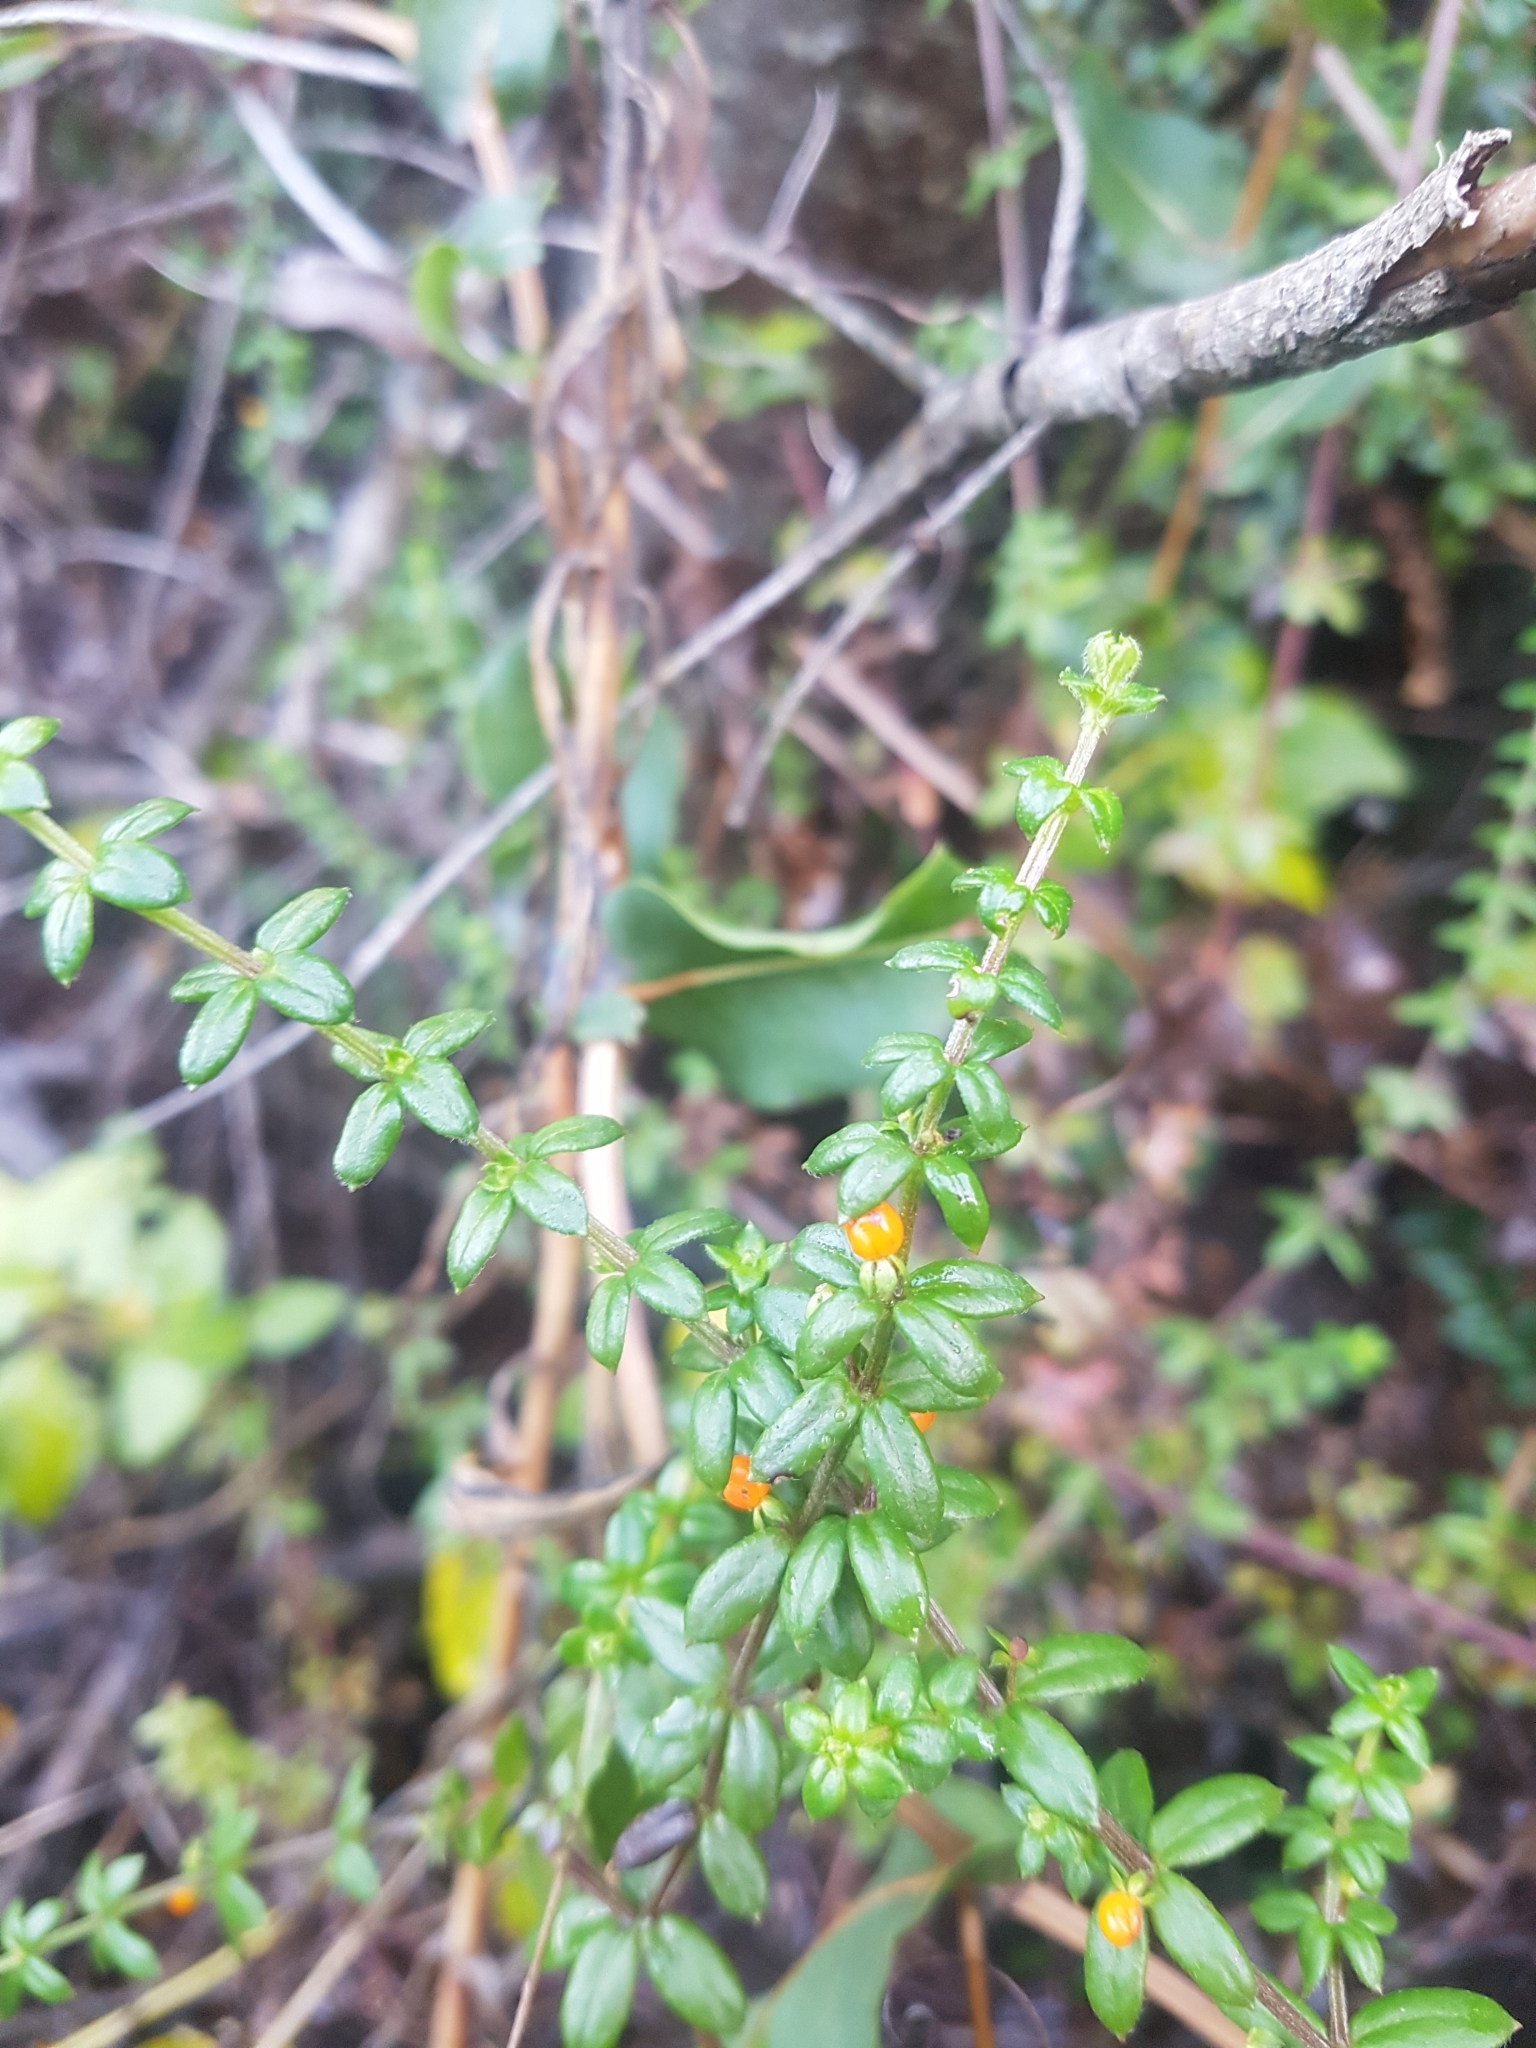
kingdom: Plantae
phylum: Tracheophyta
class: Magnoliopsida
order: Gentianales
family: Rubiaceae
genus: Galium
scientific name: Galium hypocarpium
